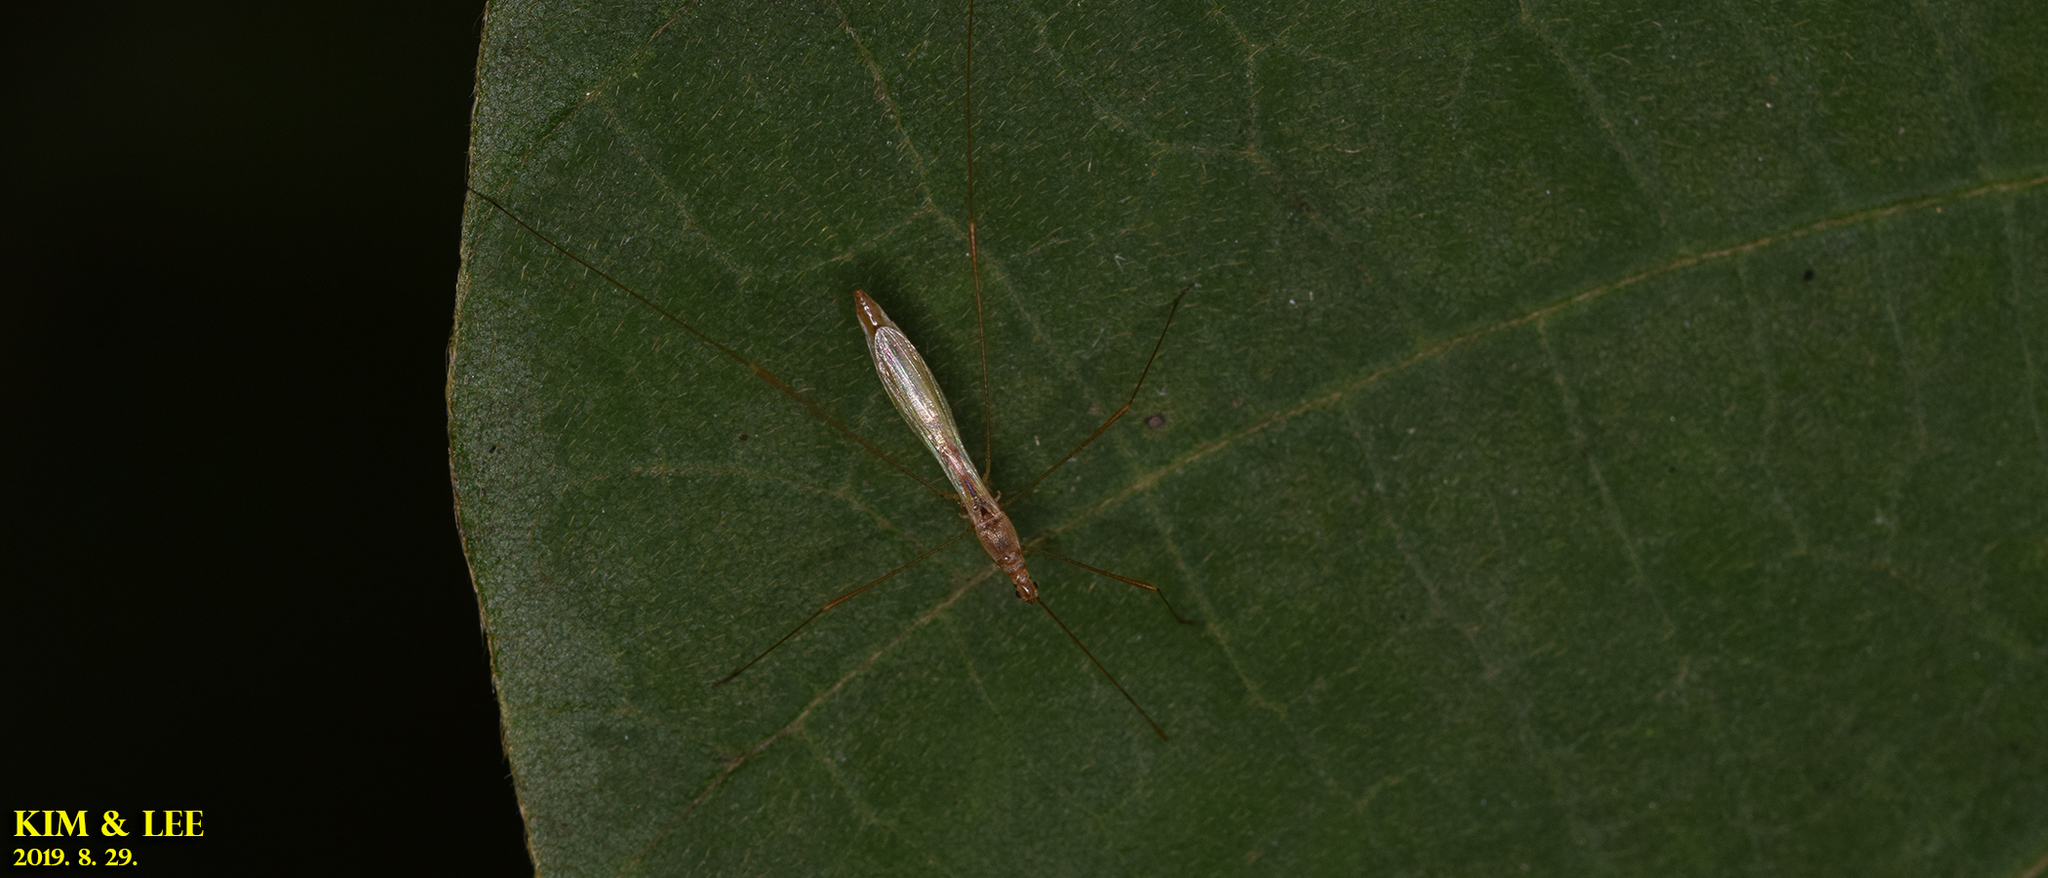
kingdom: Animalia
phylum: Arthropoda
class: Insecta
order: Hemiptera
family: Berytidae
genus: Yemma
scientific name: Yemma exilis
